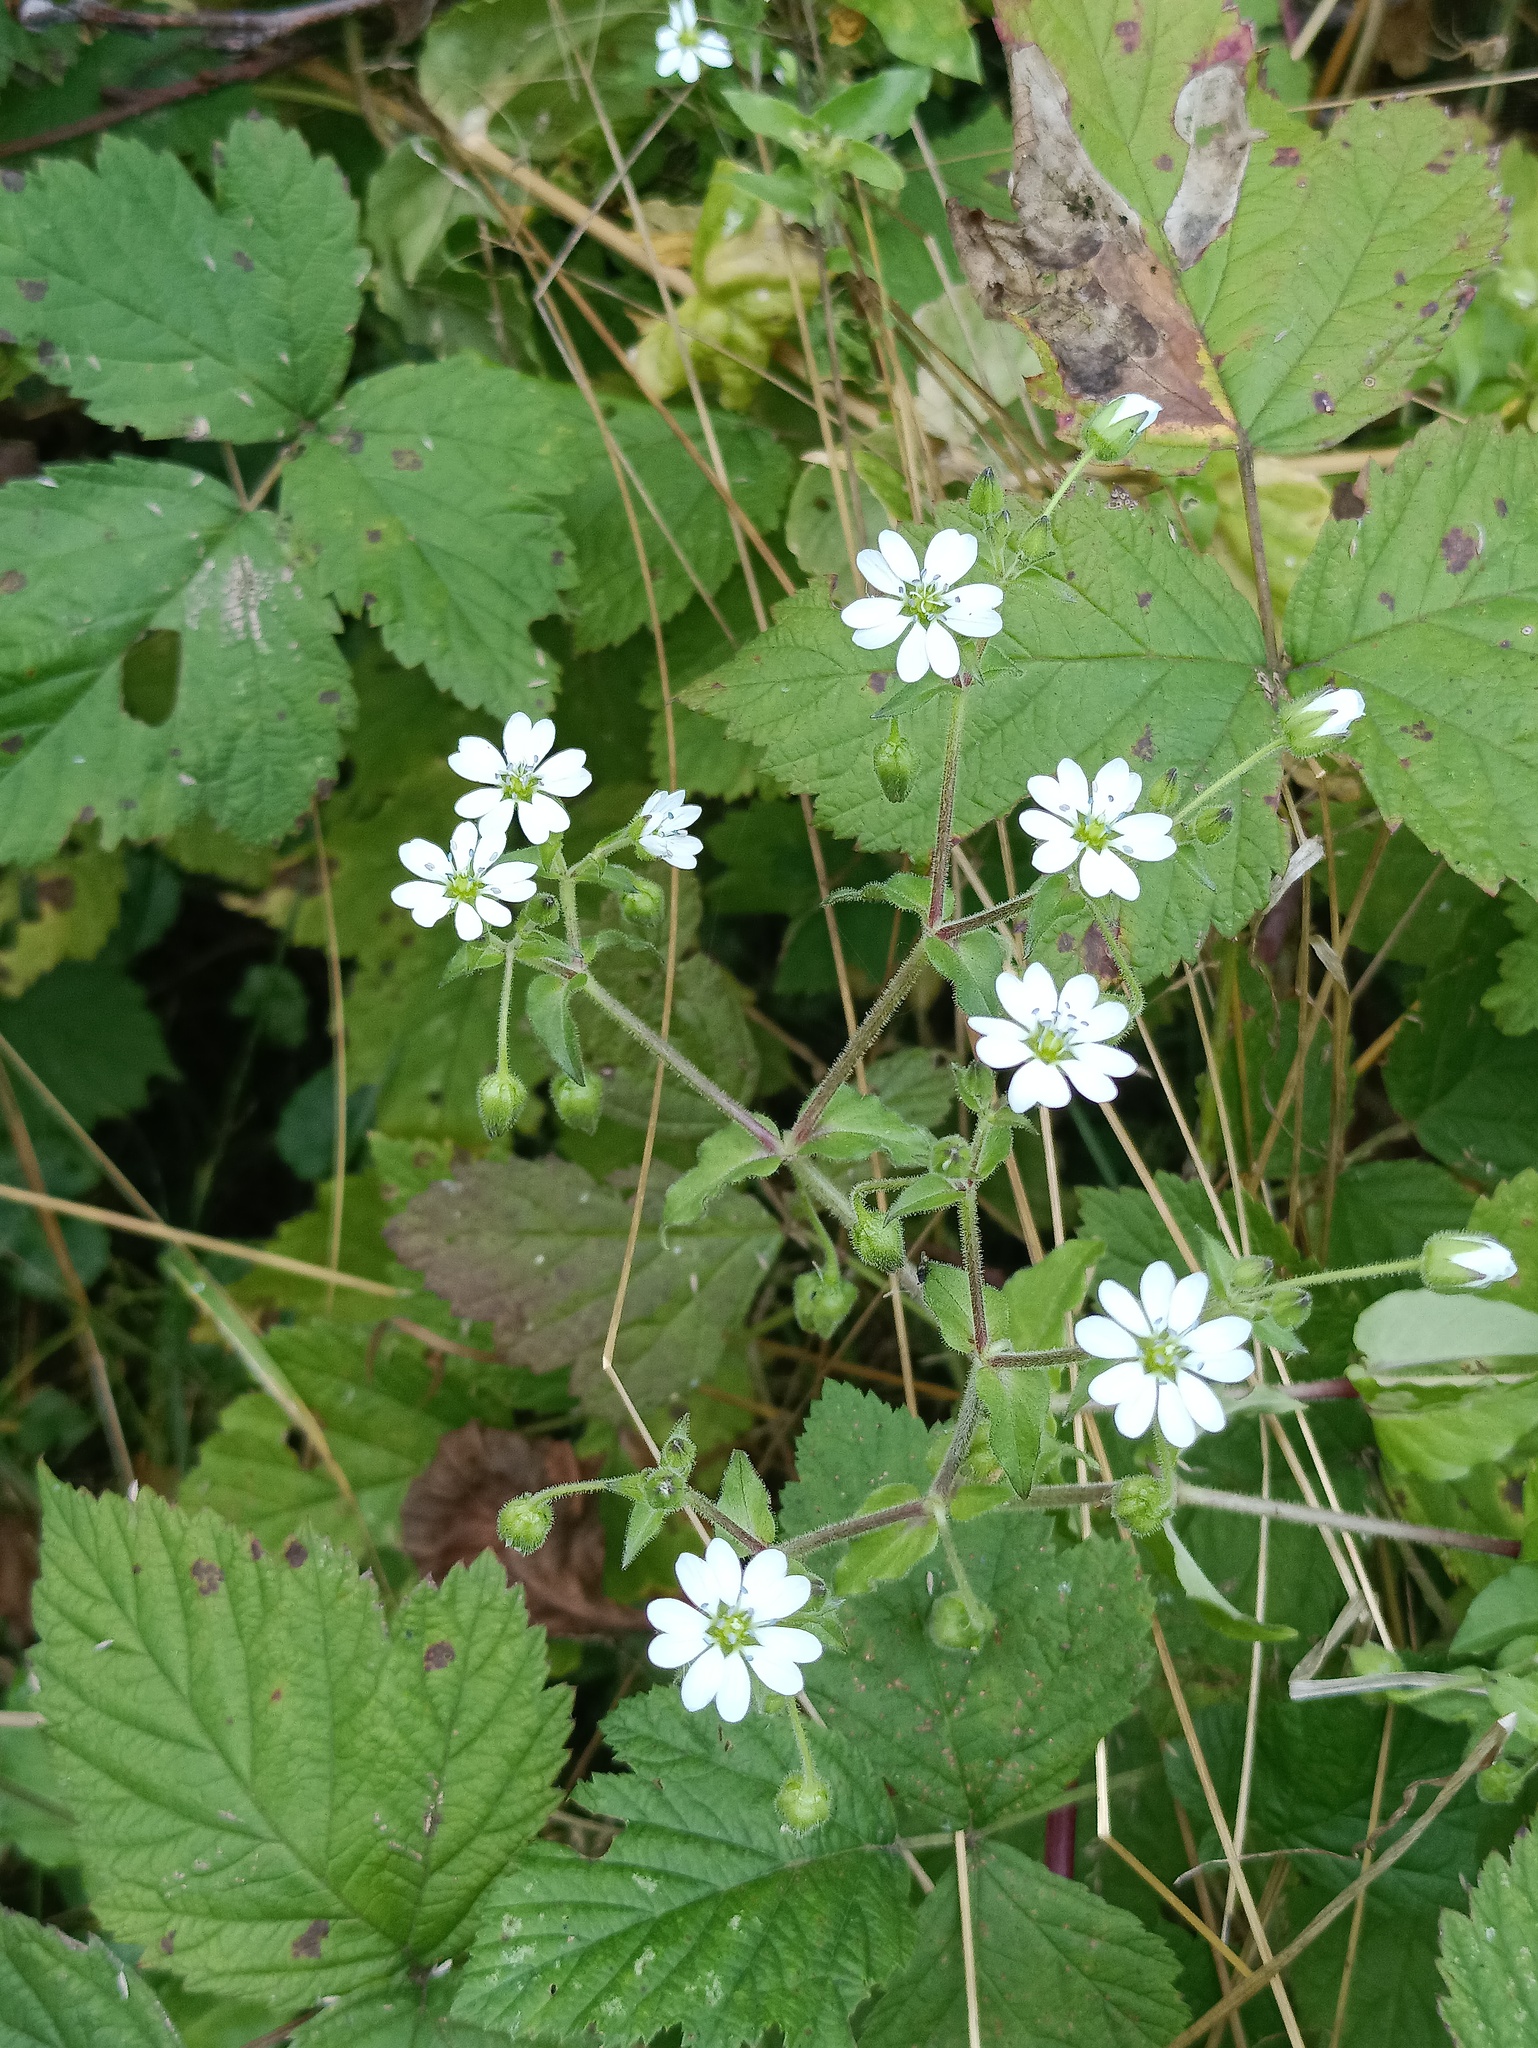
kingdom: Plantae
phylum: Tracheophyta
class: Magnoliopsida
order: Caryophyllales
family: Caryophyllaceae
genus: Stellaria
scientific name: Stellaria aquatica
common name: Water chickweed
